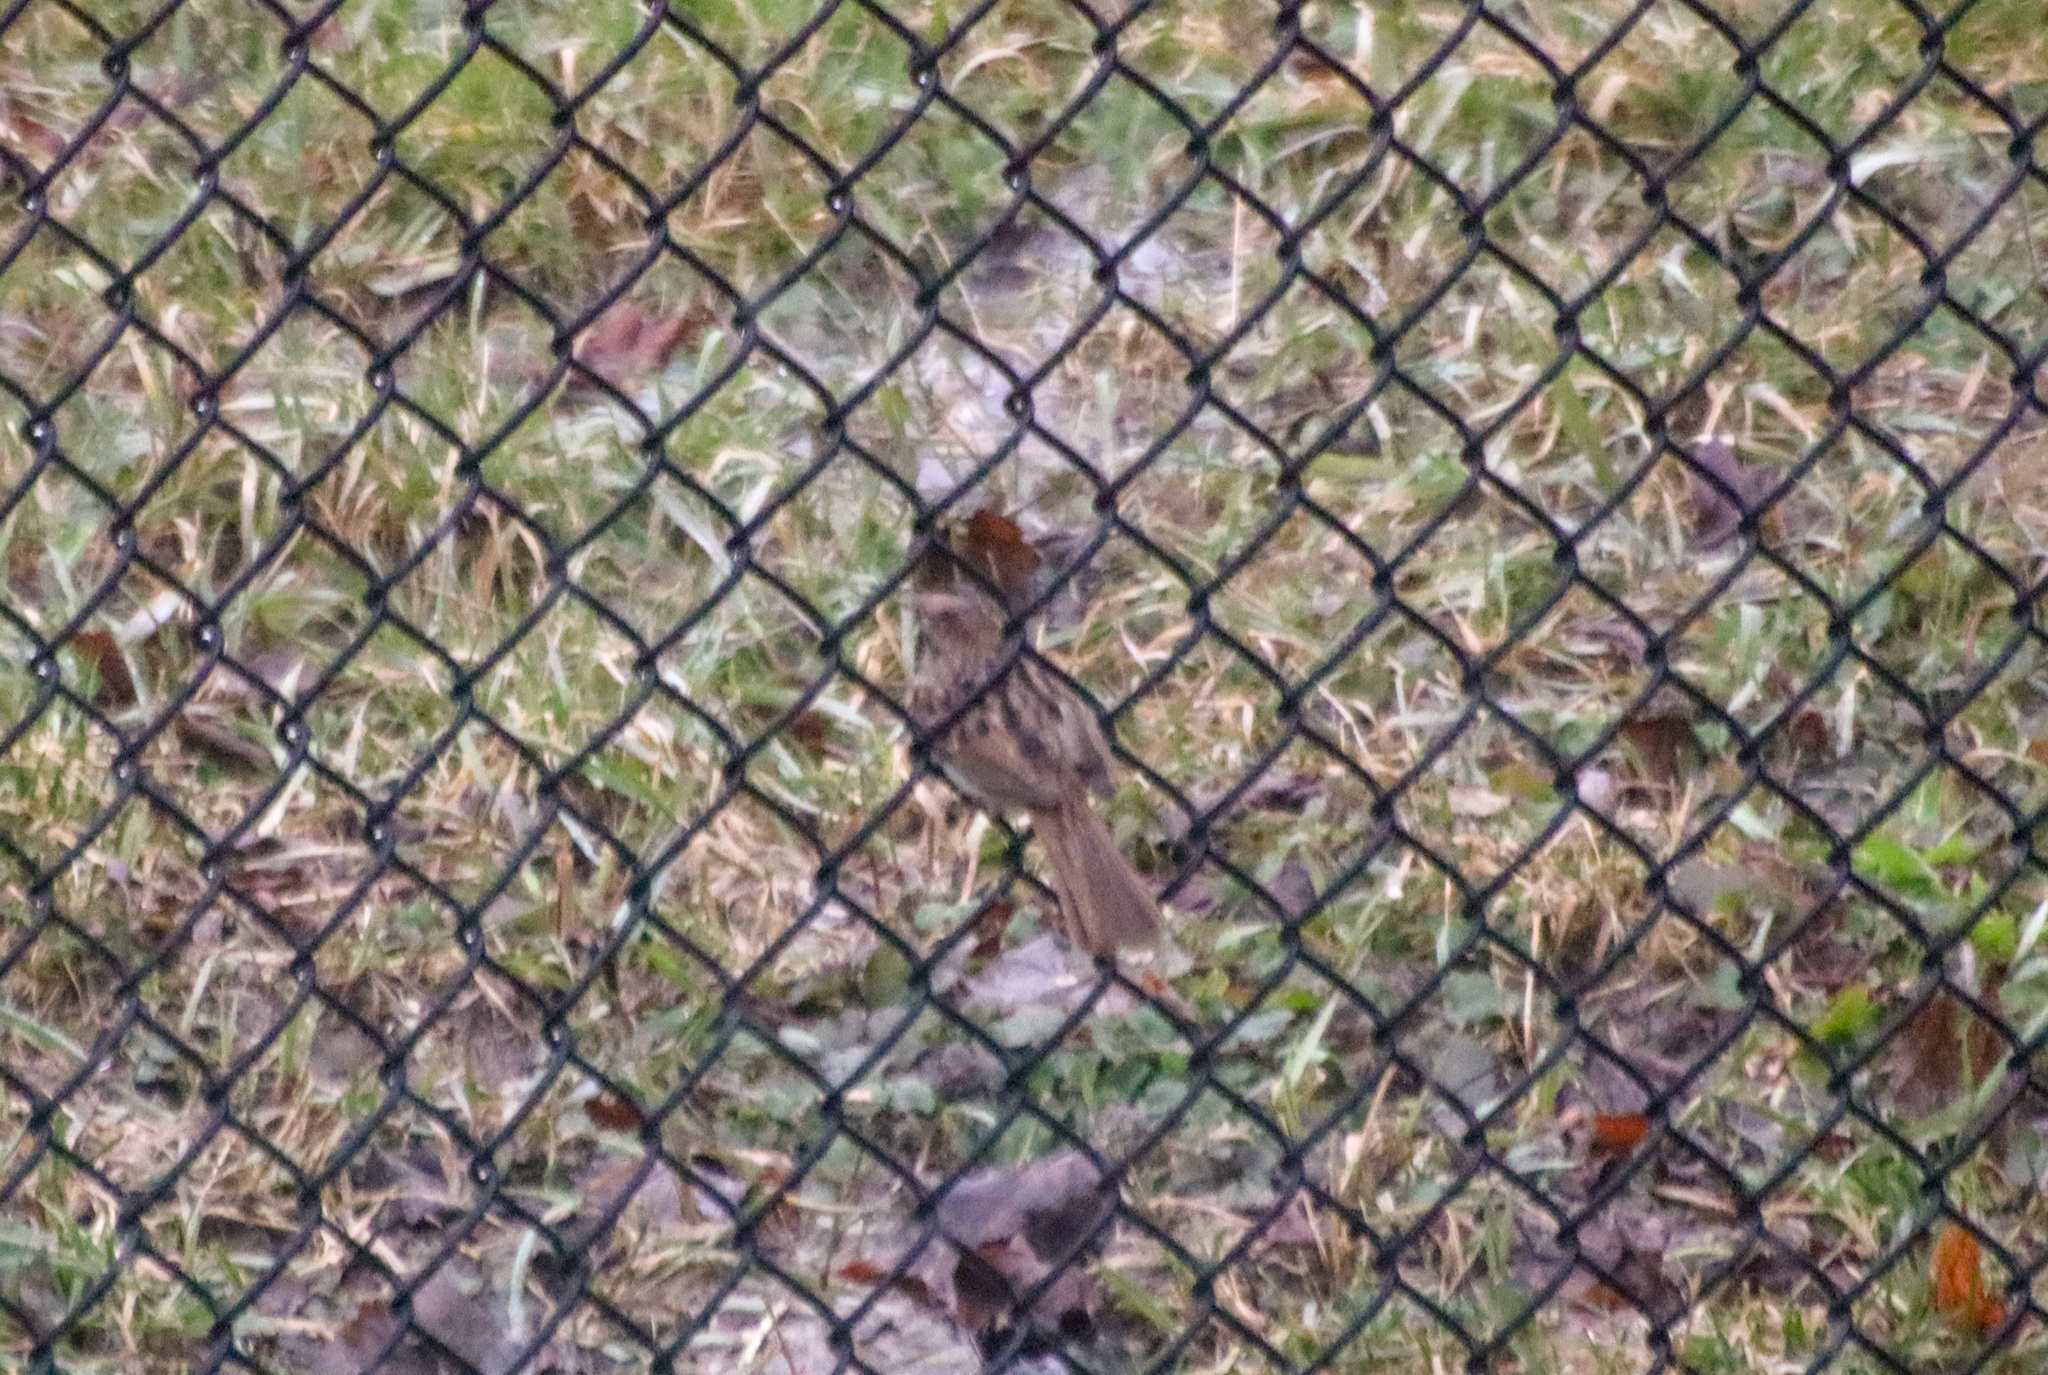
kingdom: Animalia
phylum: Chordata
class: Aves
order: Passeriformes
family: Passerellidae
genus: Melospiza
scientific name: Melospiza melodia
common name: Song sparrow
